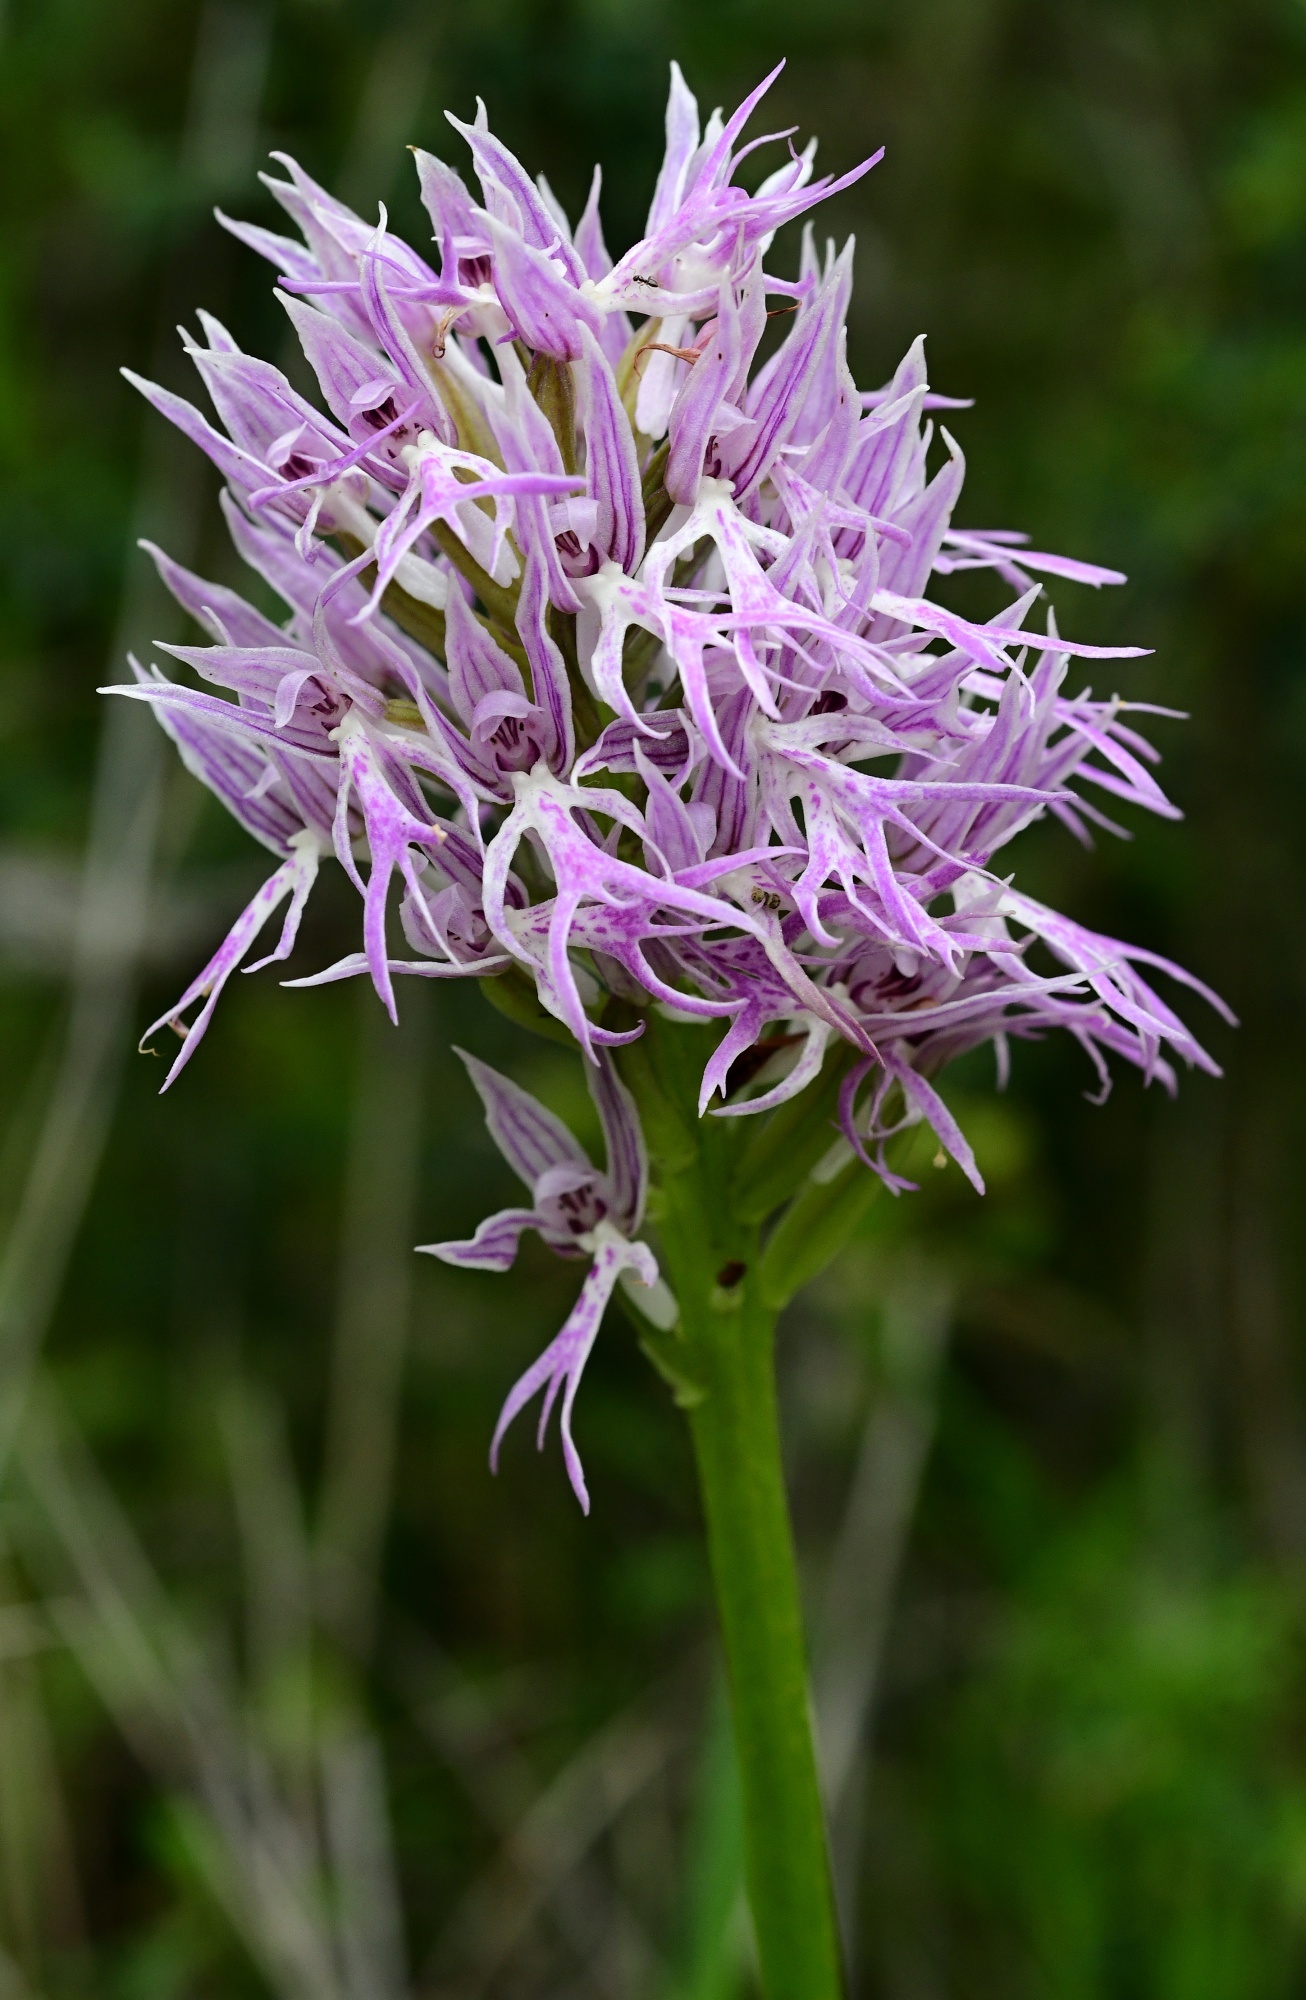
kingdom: Plantae
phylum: Tracheophyta
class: Liliopsida
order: Asparagales
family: Orchidaceae
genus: Orchis
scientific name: Orchis italica
